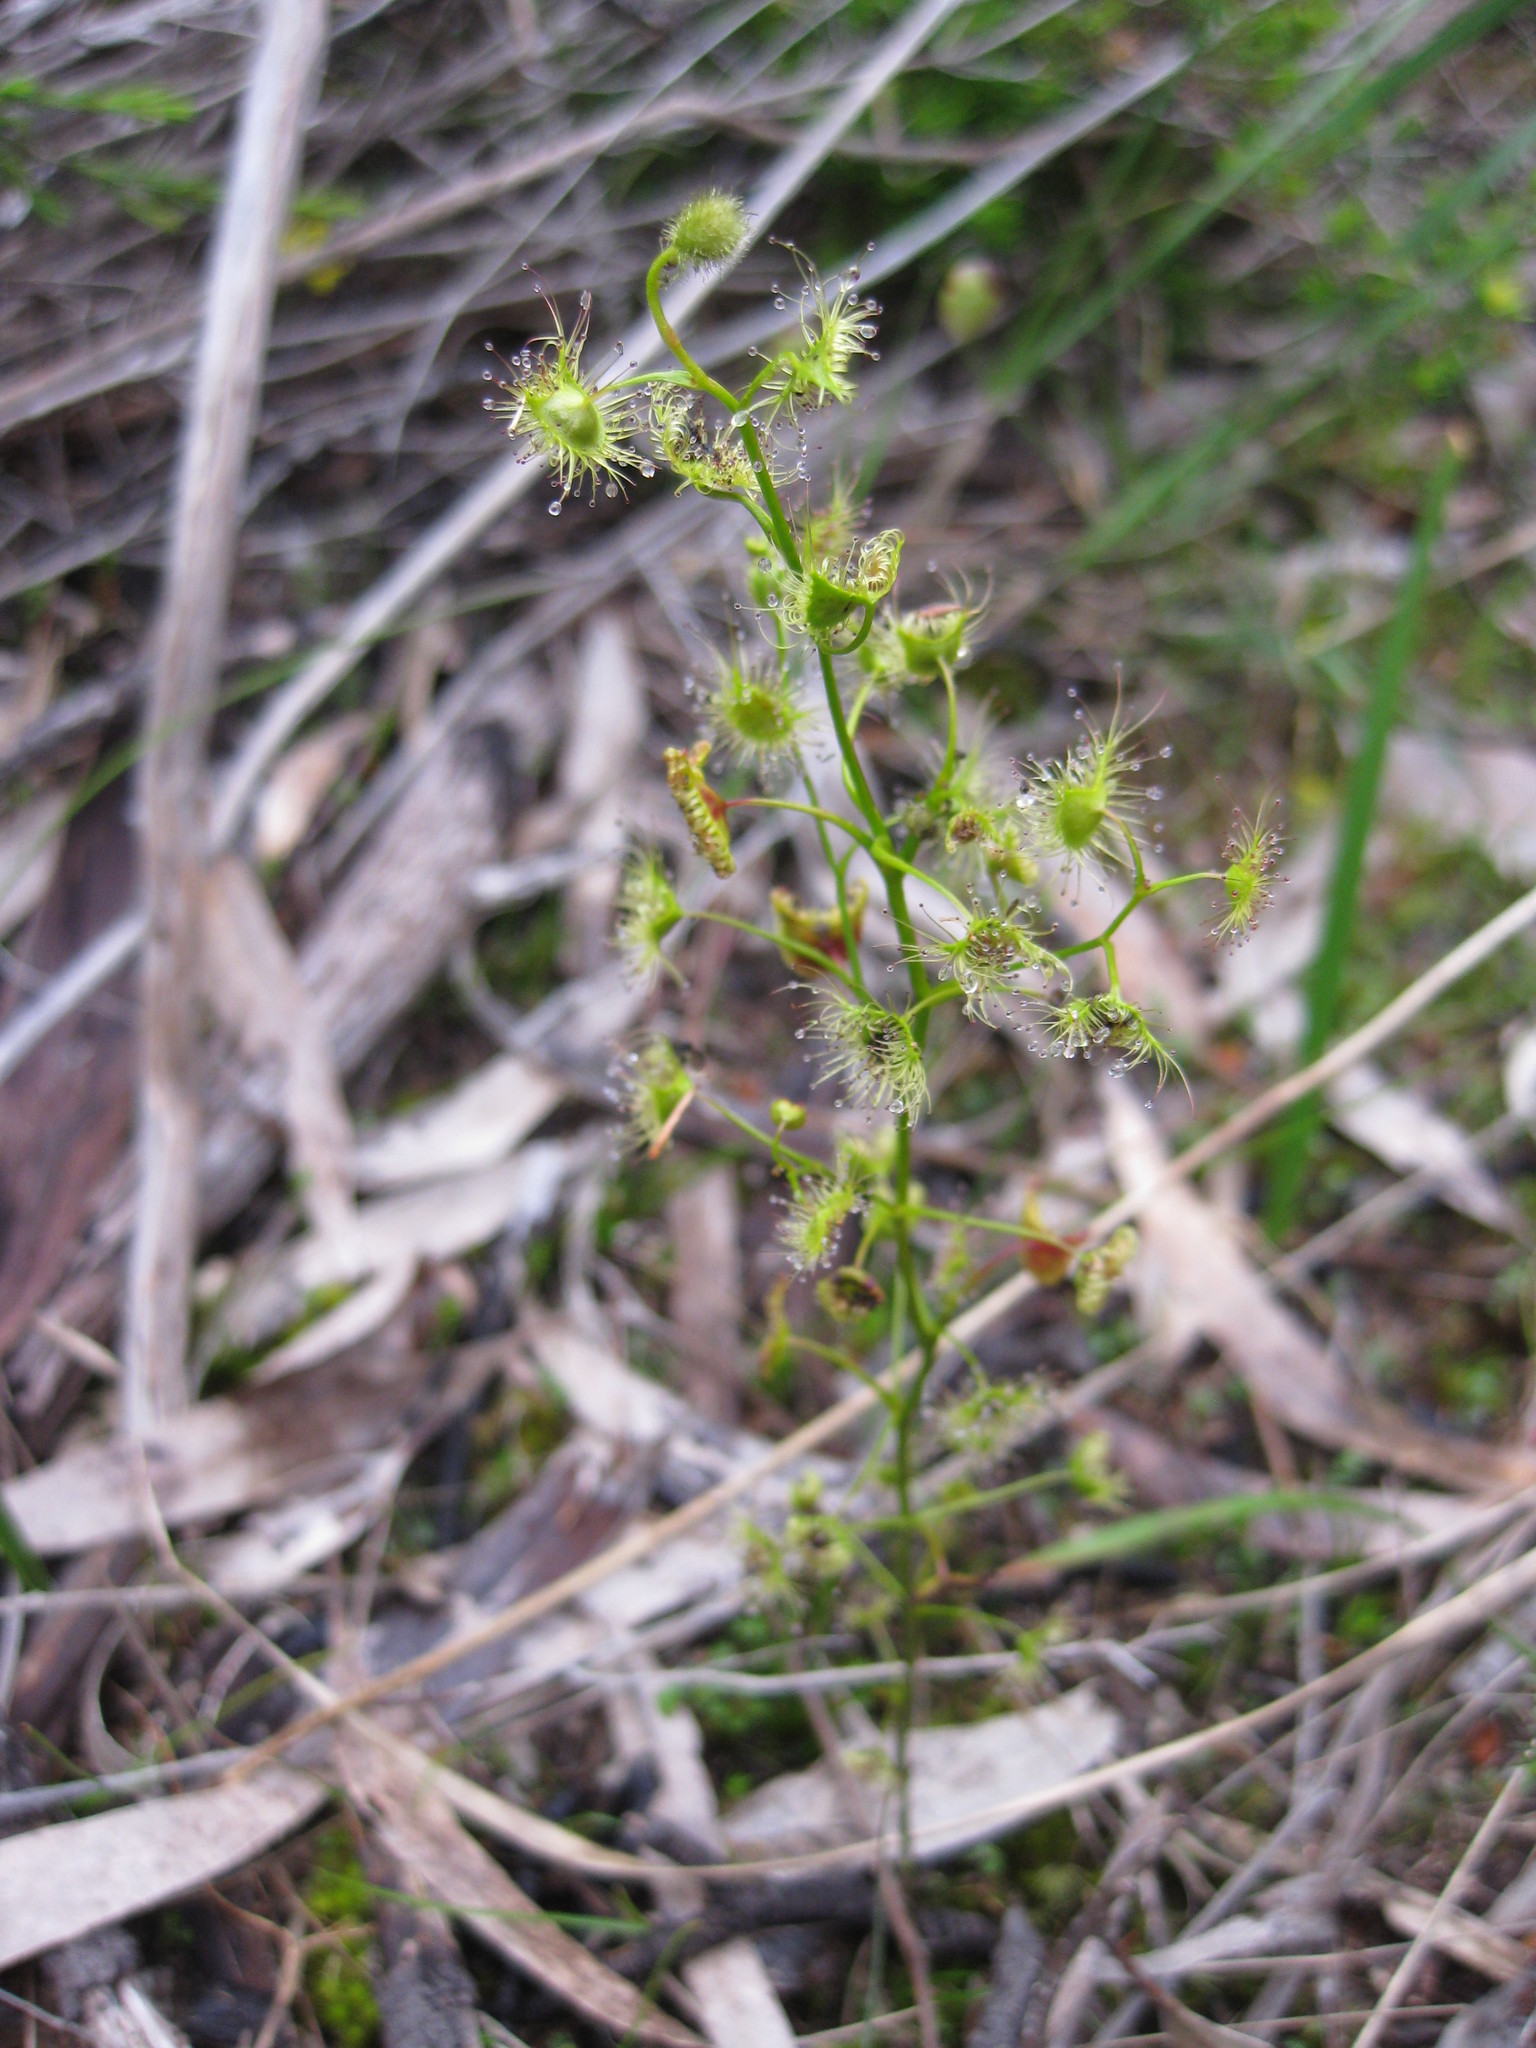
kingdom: Plantae
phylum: Tracheophyta
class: Magnoliopsida
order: Caryophyllales
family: Droseraceae
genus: Drosera
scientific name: Drosera gunniana
